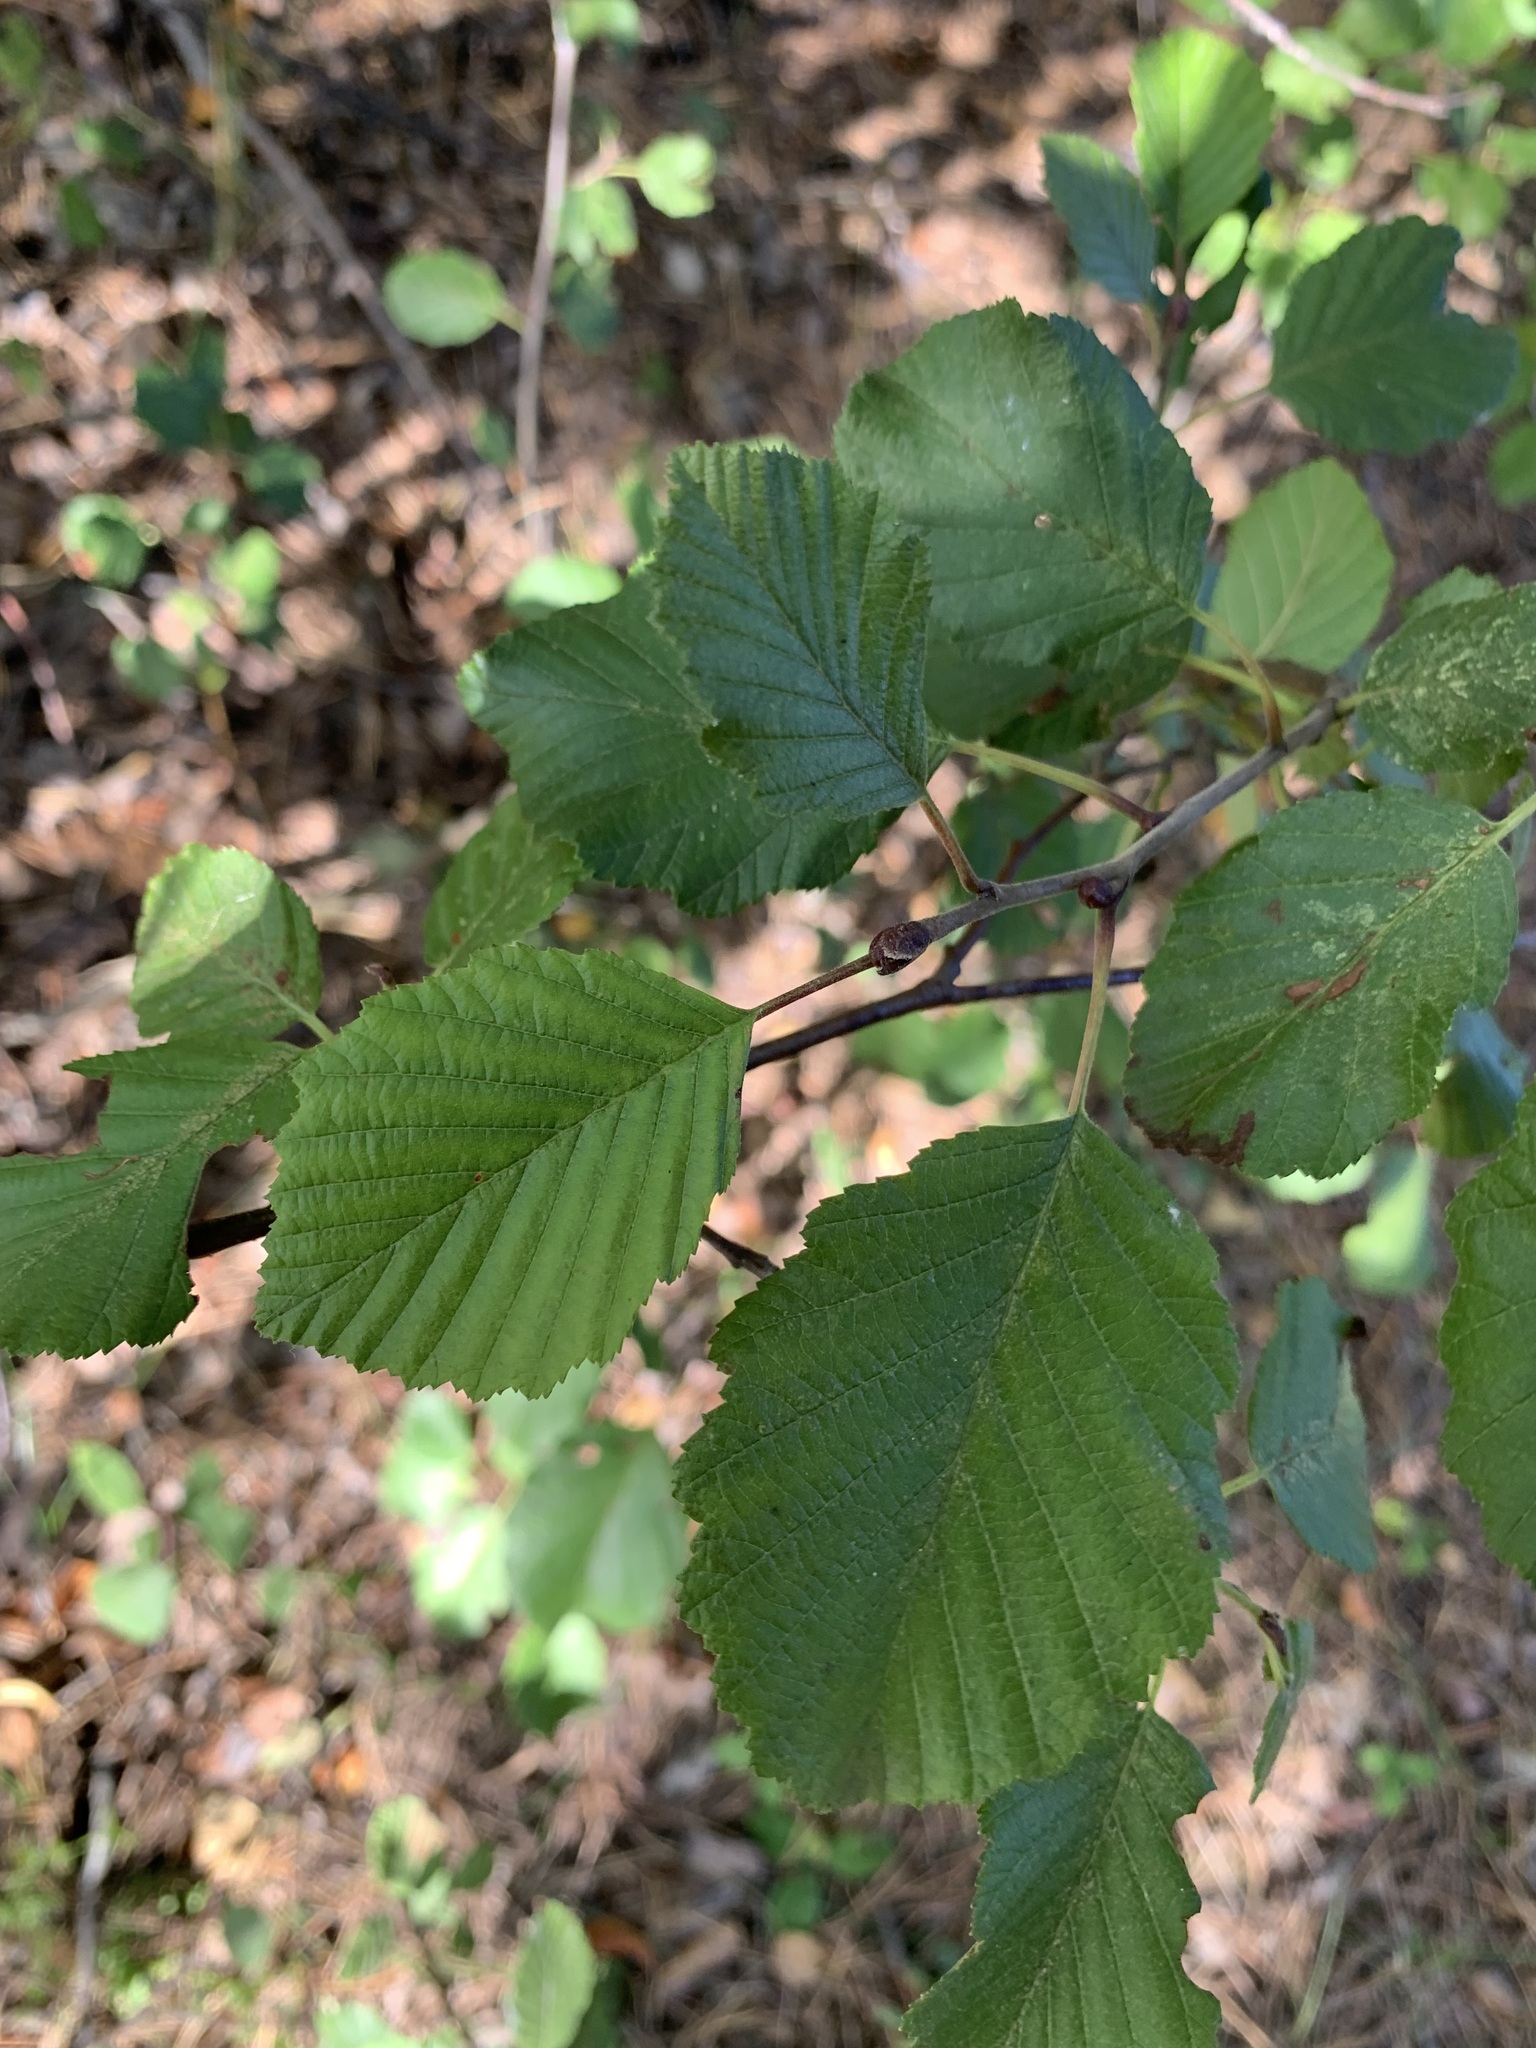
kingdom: Plantae
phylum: Tracheophyta
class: Magnoliopsida
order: Fagales
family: Betulaceae
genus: Alnus
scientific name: Alnus incana
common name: Grey alder
